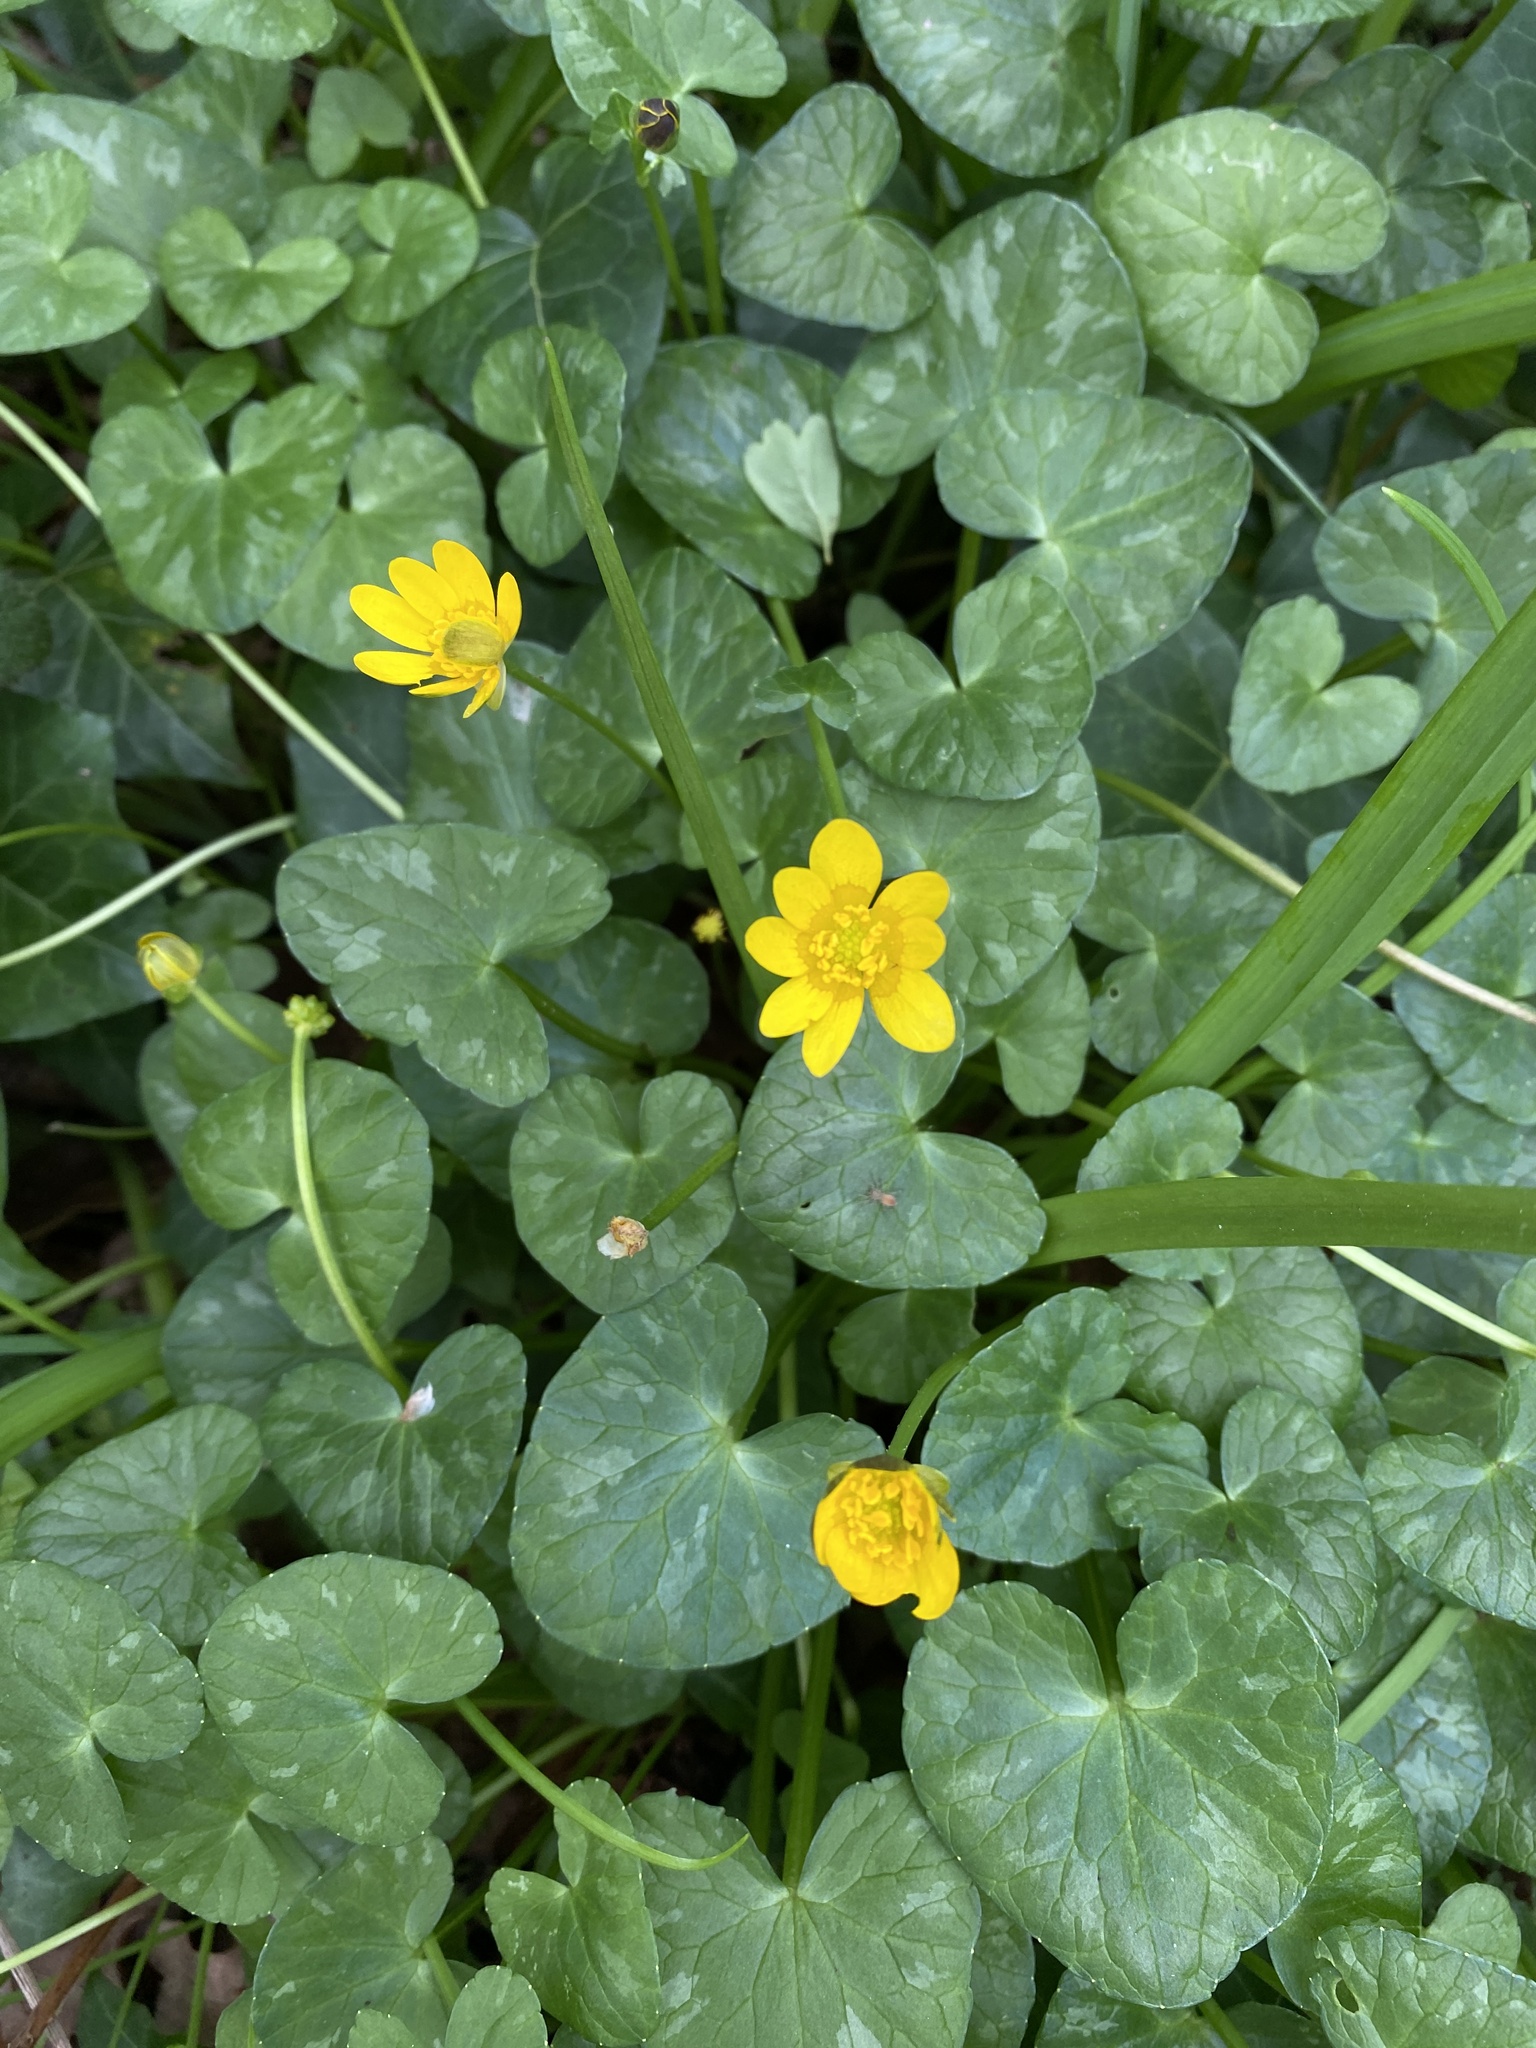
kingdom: Plantae
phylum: Tracheophyta
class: Magnoliopsida
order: Ranunculales
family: Ranunculaceae
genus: Ficaria
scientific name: Ficaria verna
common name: Lesser celandine
